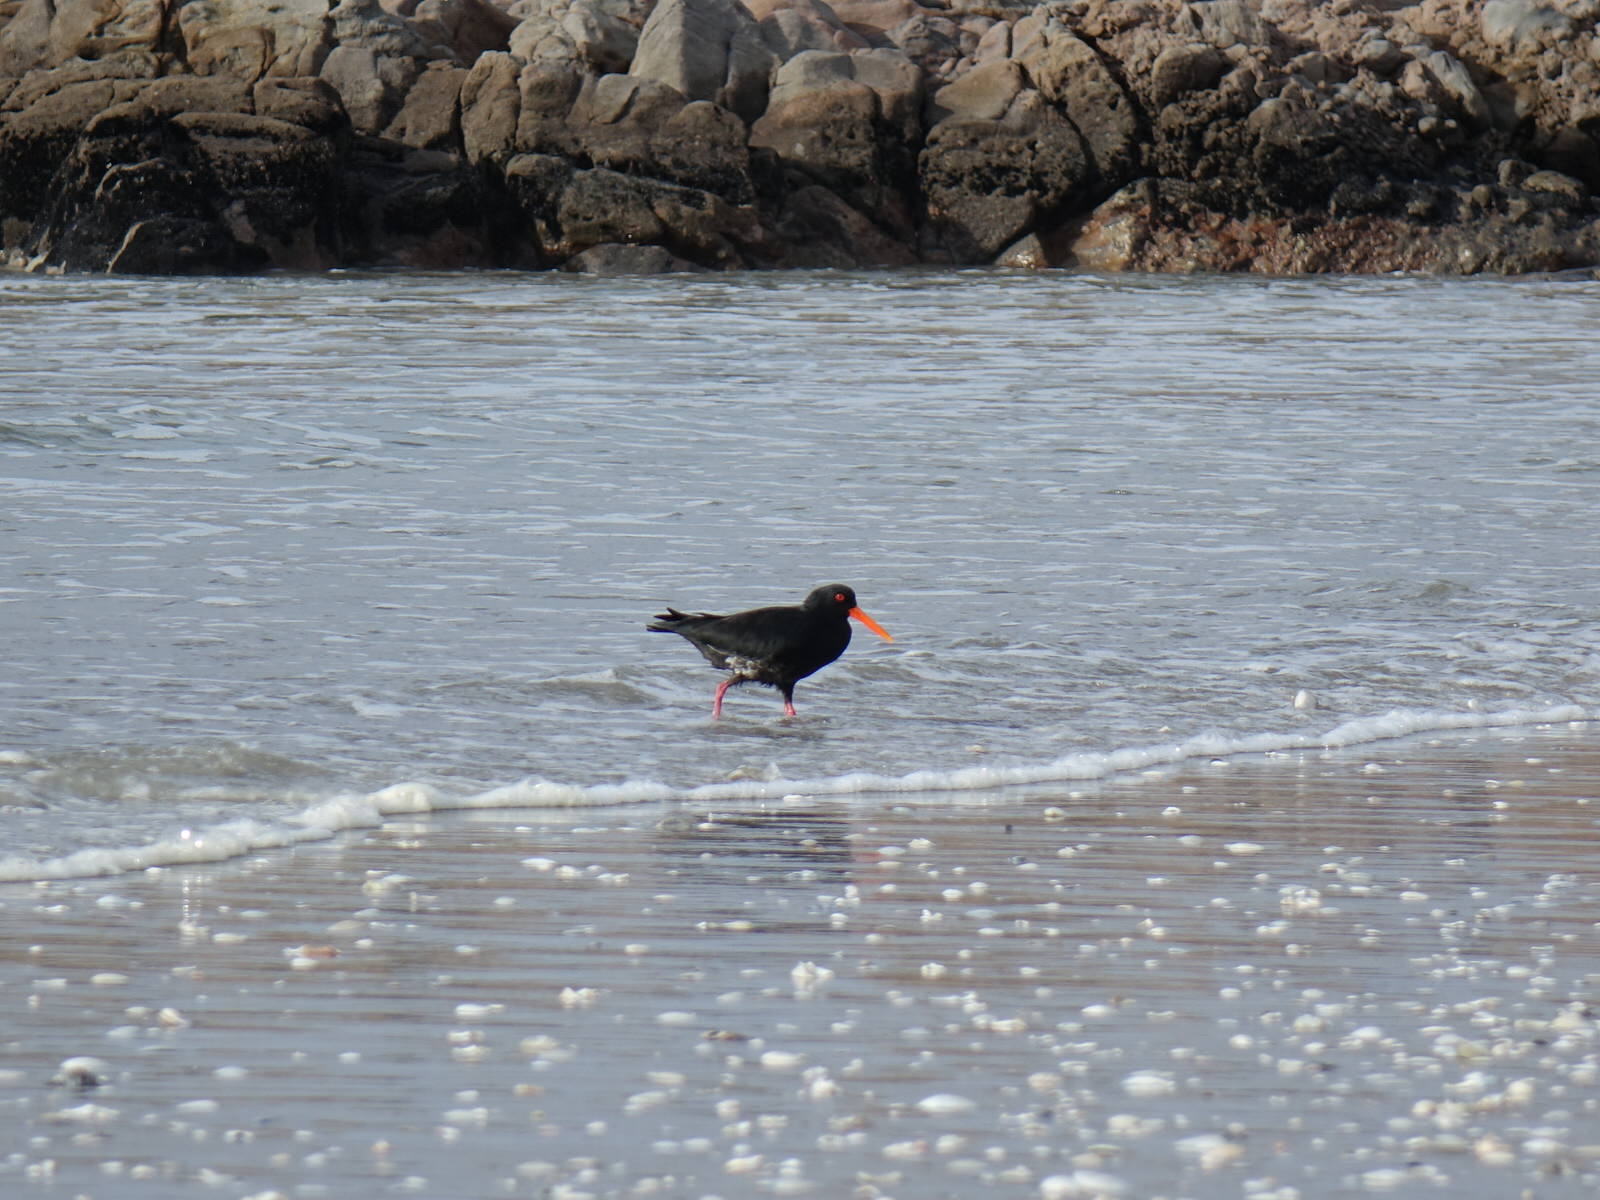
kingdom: Animalia
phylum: Chordata
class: Aves
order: Charadriiformes
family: Haematopodidae
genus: Haematopus
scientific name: Haematopus unicolor
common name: Variable oystercatcher
